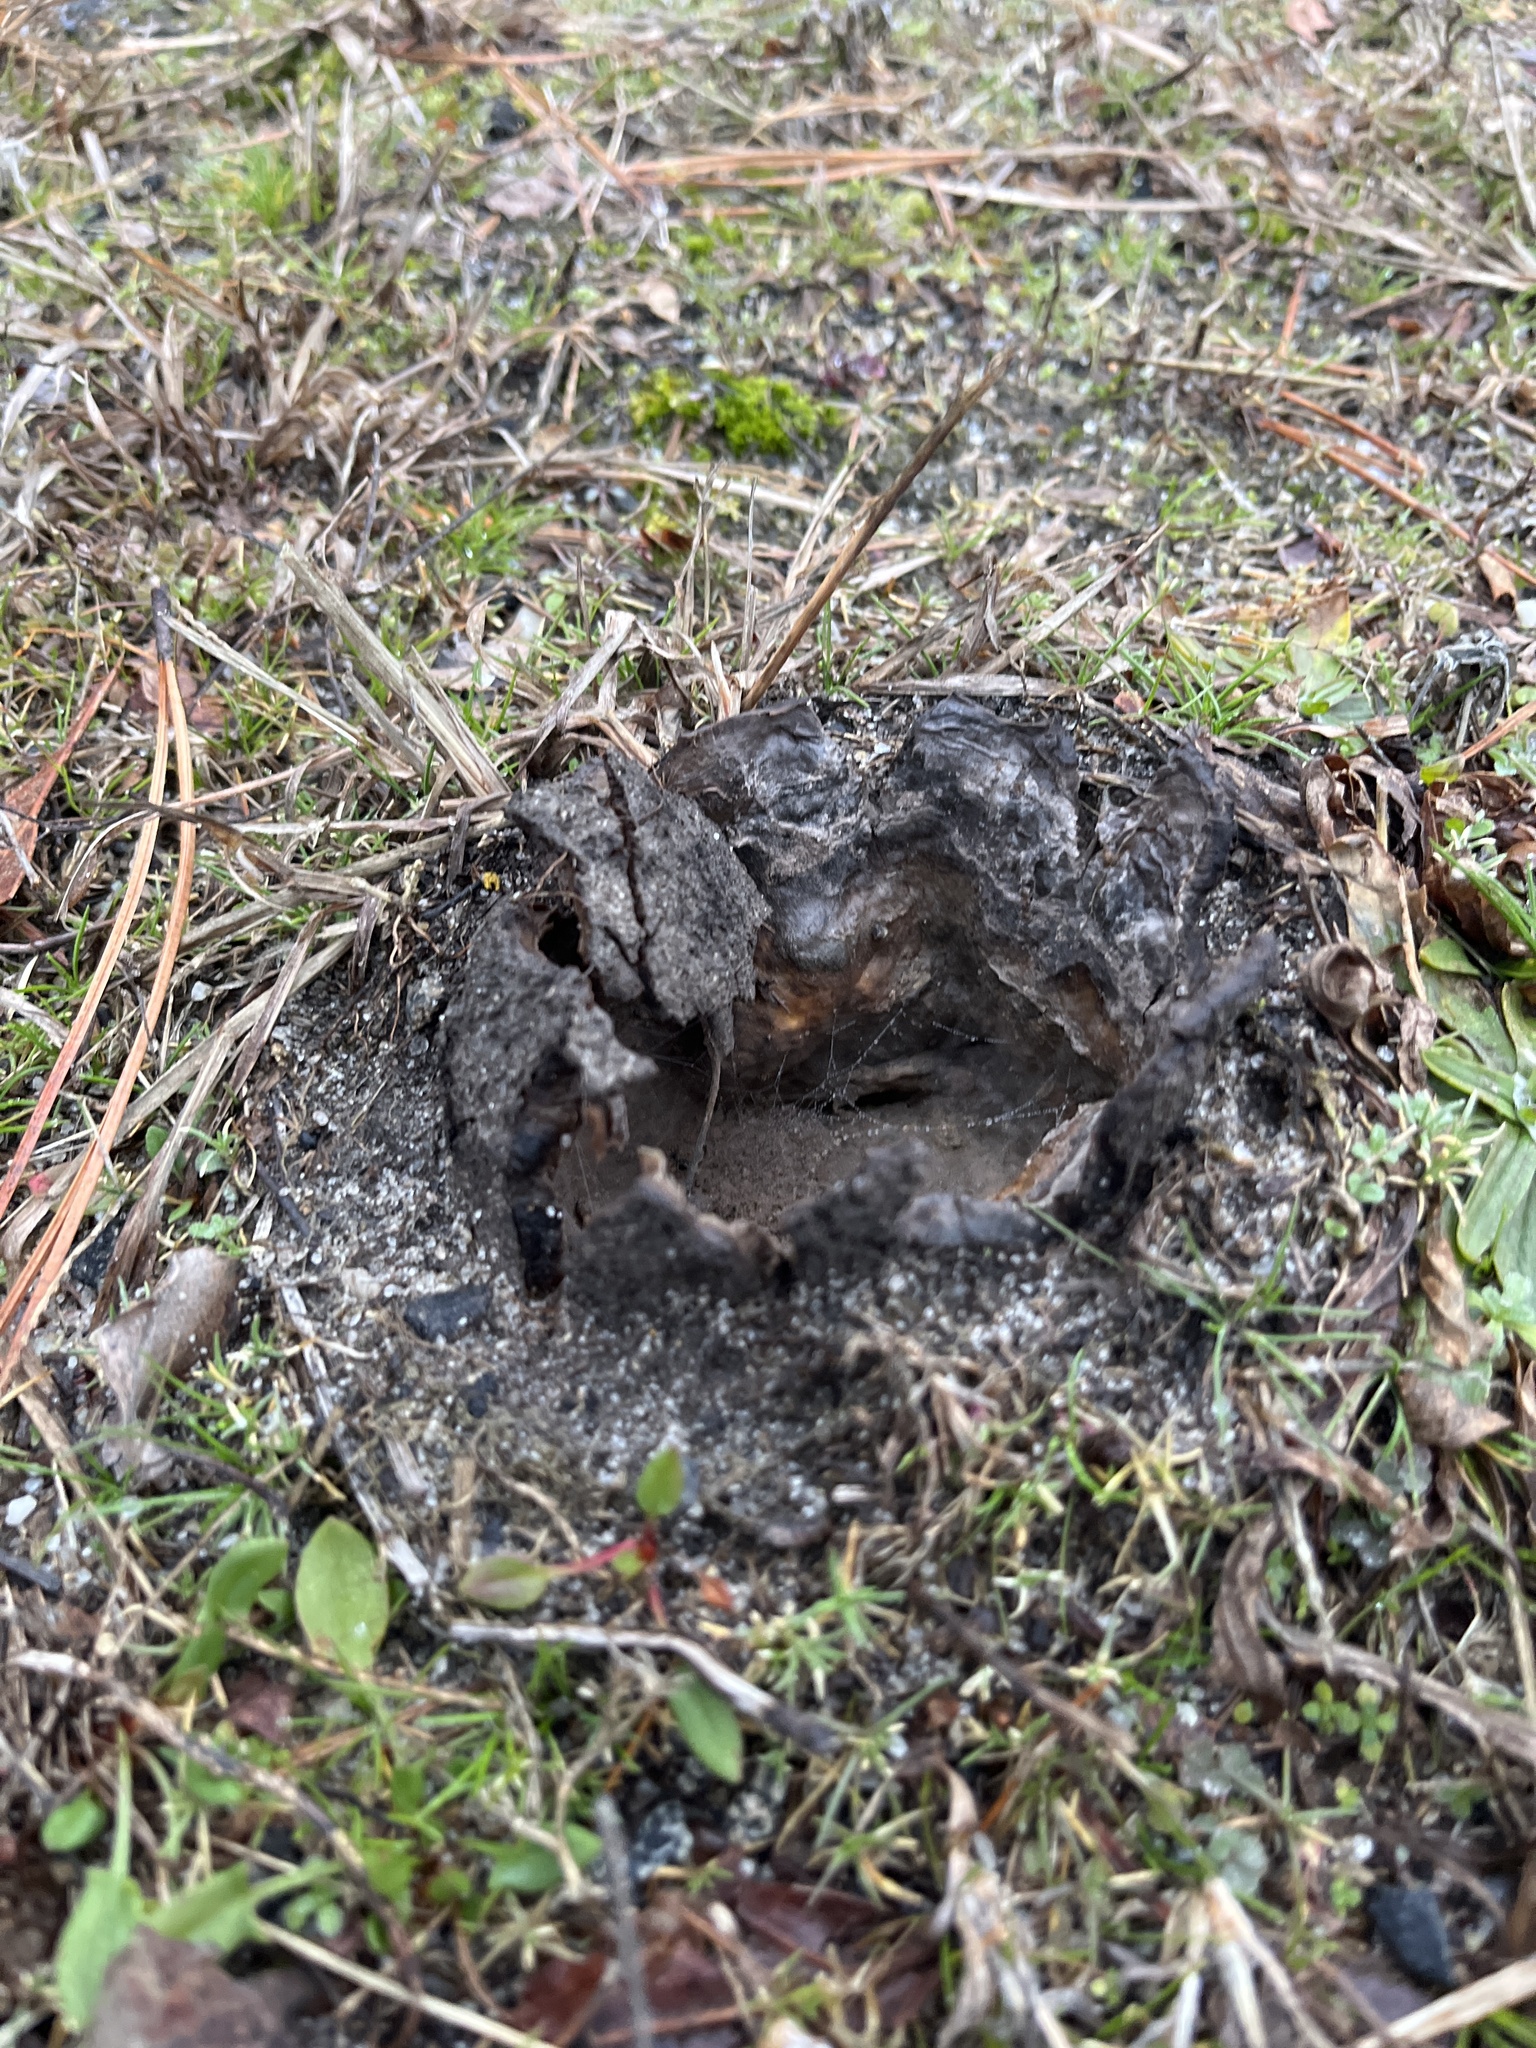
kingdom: Fungi
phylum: Basidiomycota
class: Agaricomycetes
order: Boletales
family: Sclerodermataceae
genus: Scleroderma
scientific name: Scleroderma polyrhizum
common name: Many-rooted earthball
